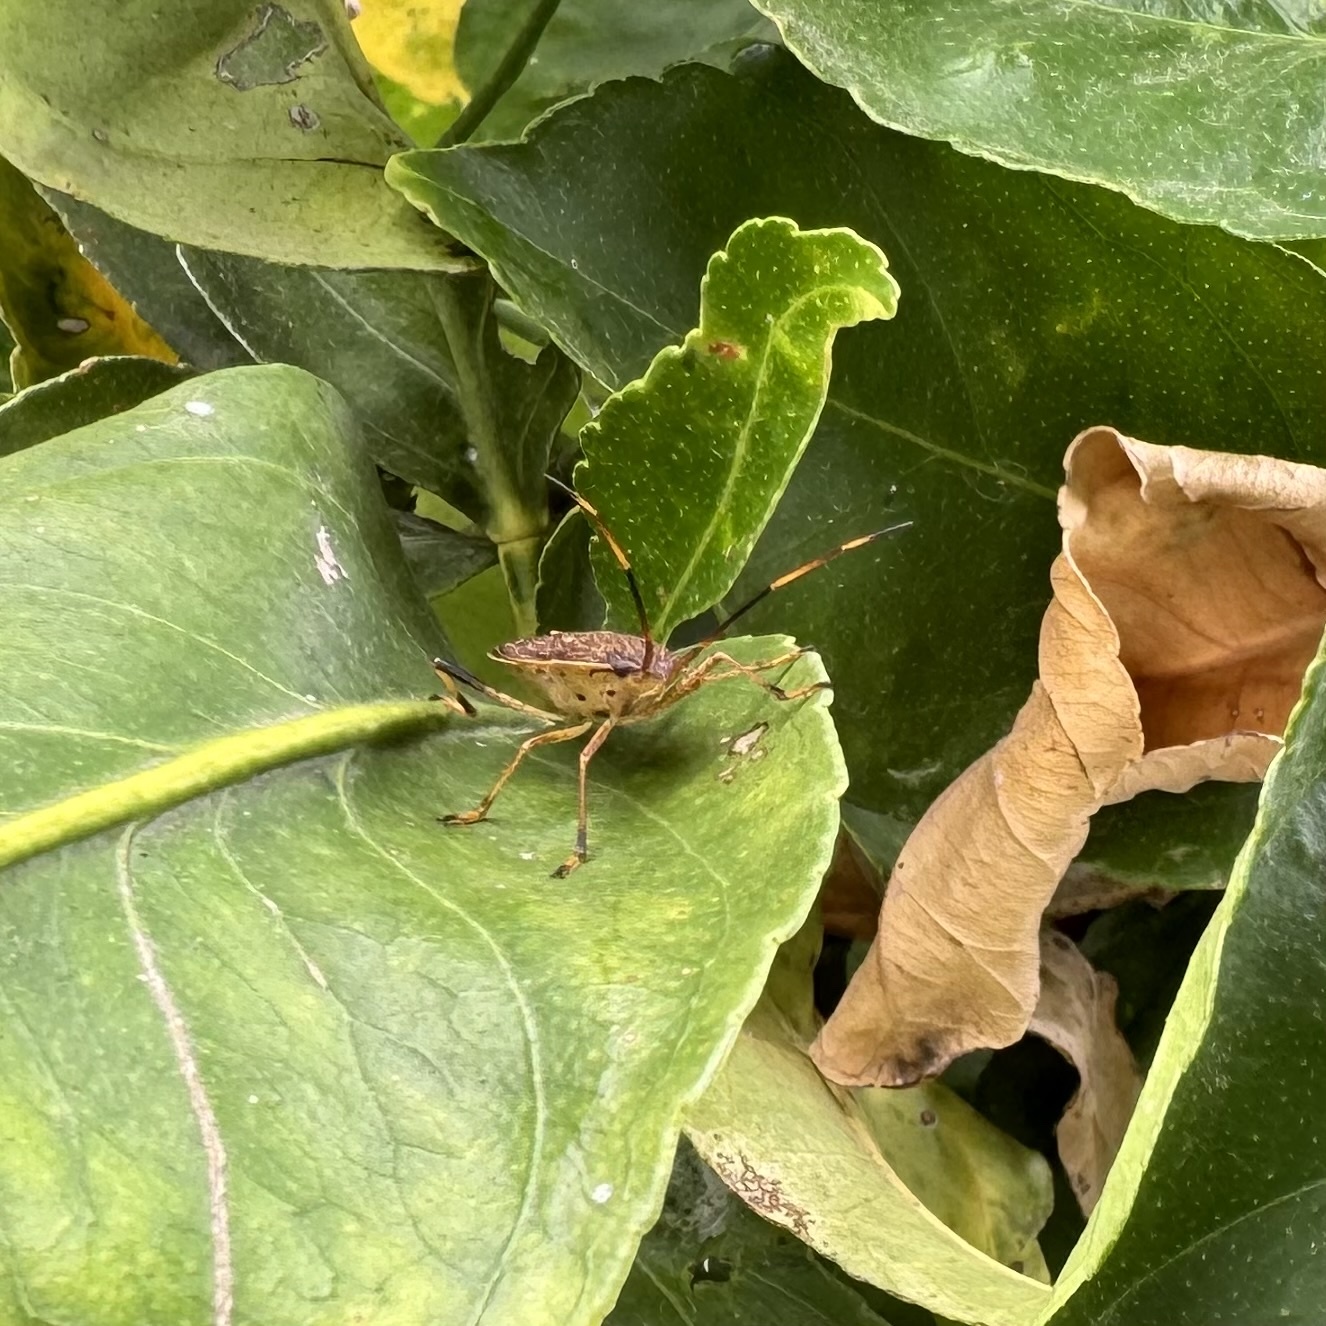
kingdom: Animalia
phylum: Arthropoda
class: Insecta
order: Hemiptera
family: Pentatomidae
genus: Poecilometis
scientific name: Poecilometis
